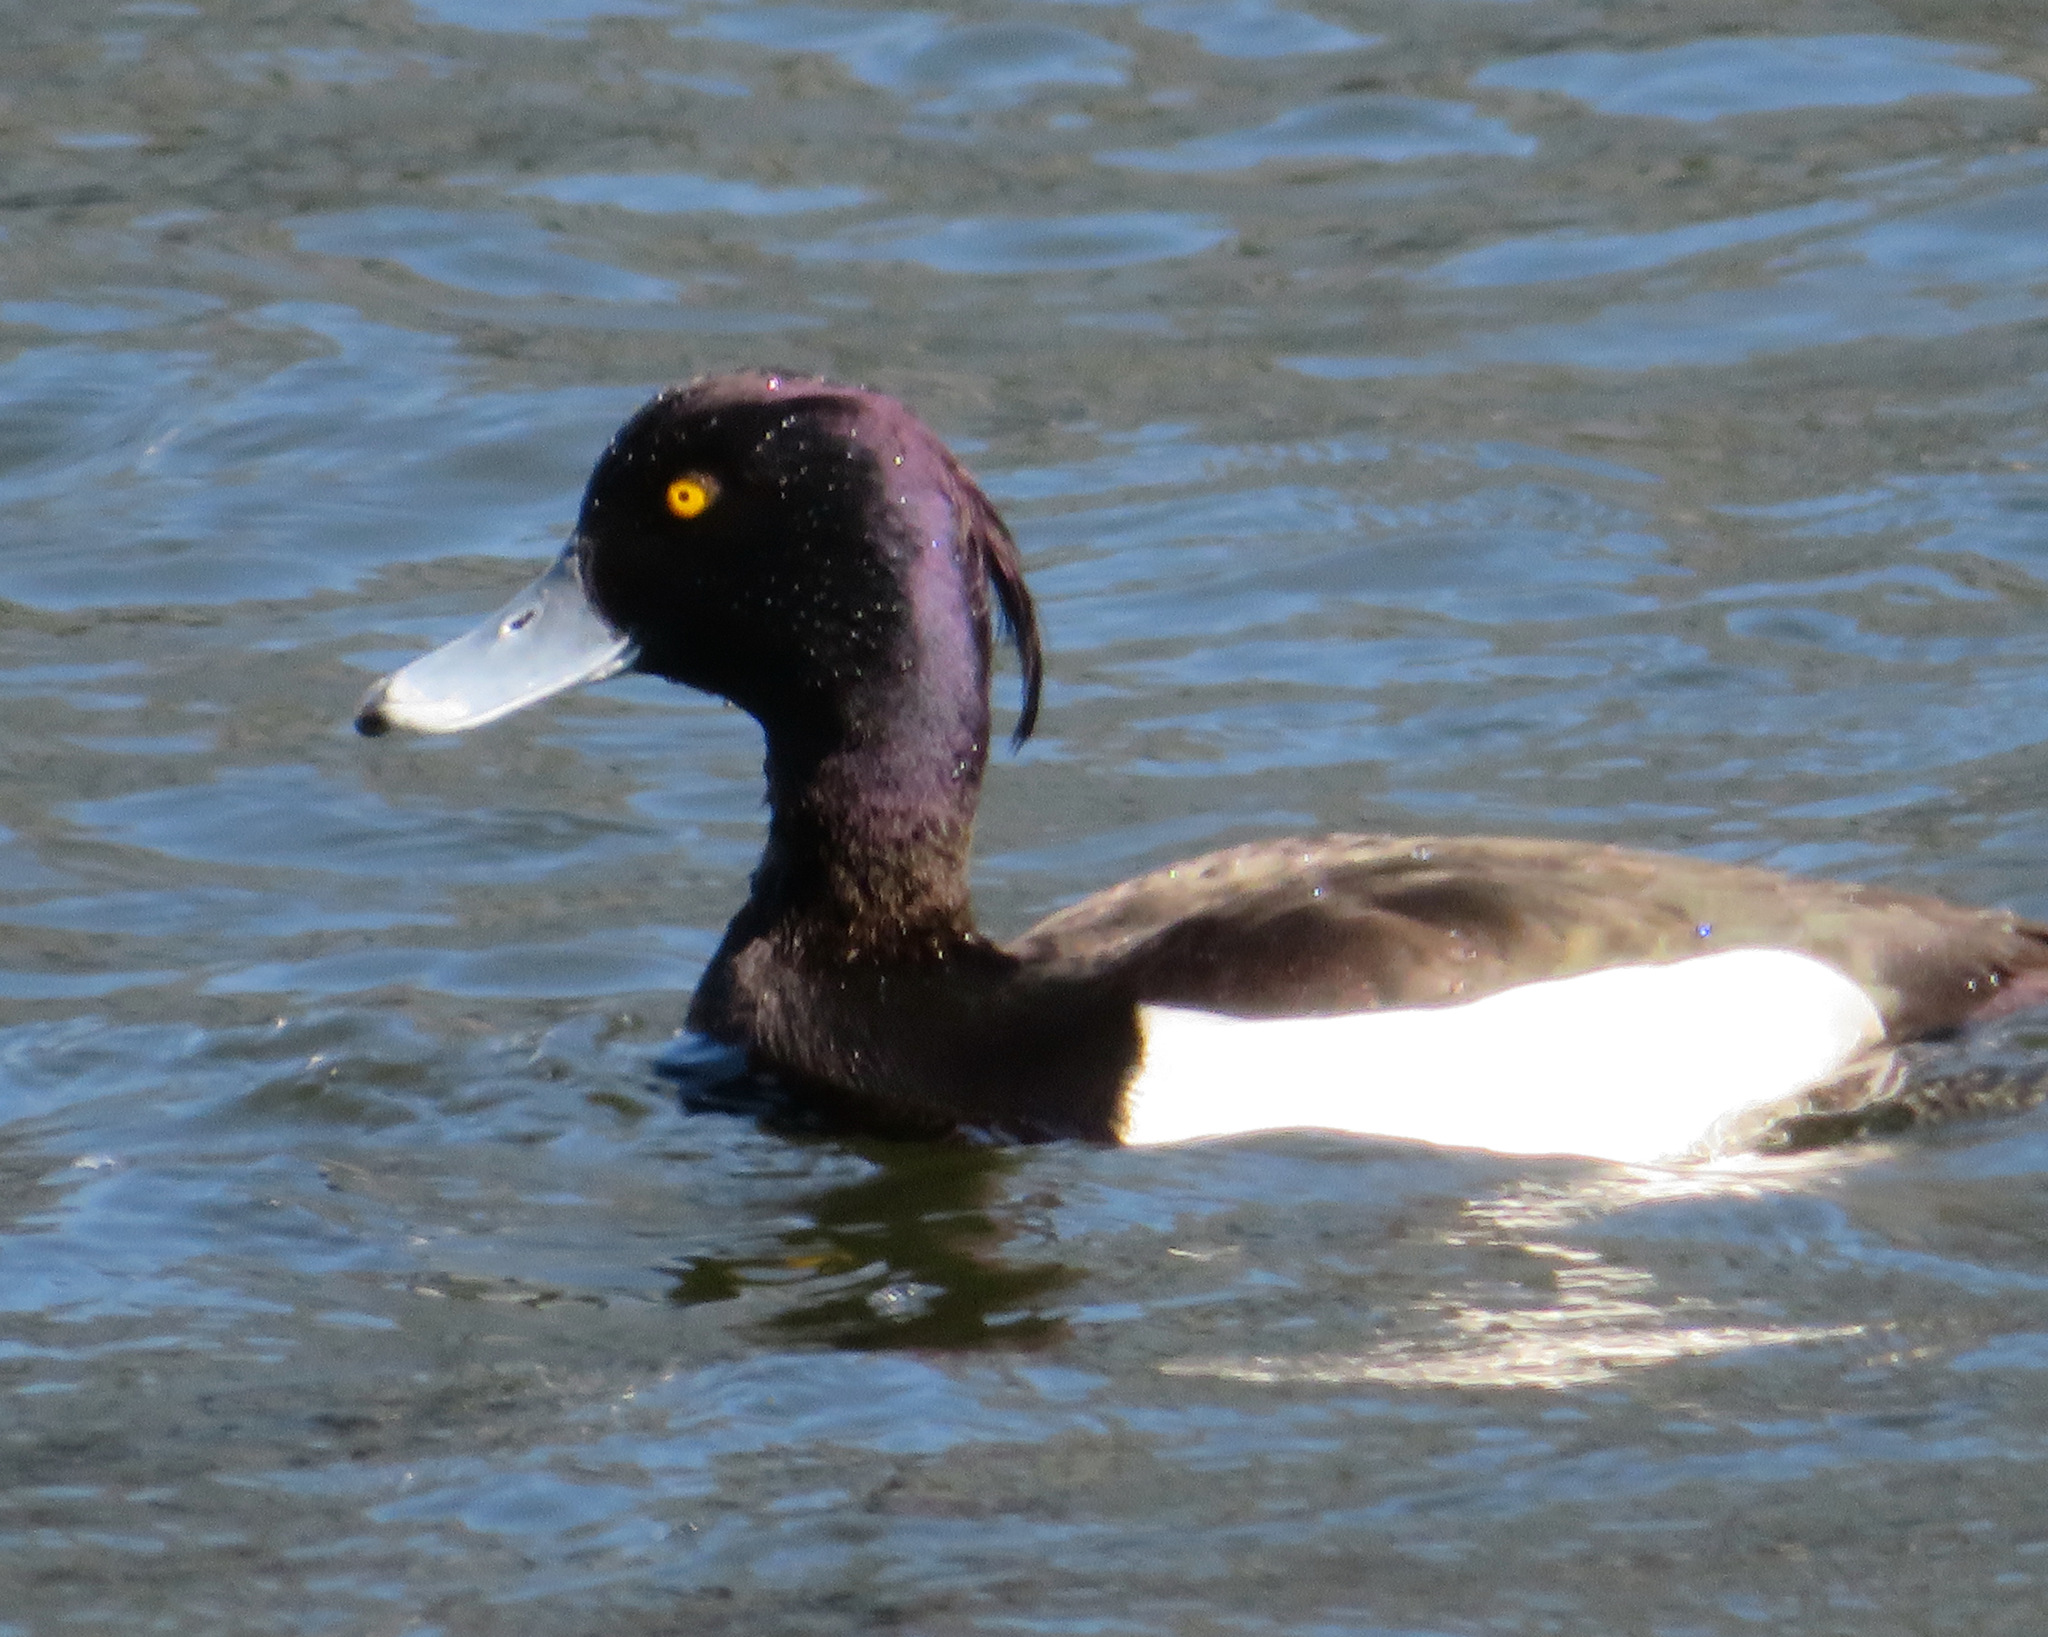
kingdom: Animalia
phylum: Chordata
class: Aves
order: Anseriformes
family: Anatidae
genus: Aythya
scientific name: Aythya fuligula
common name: Tufted duck
